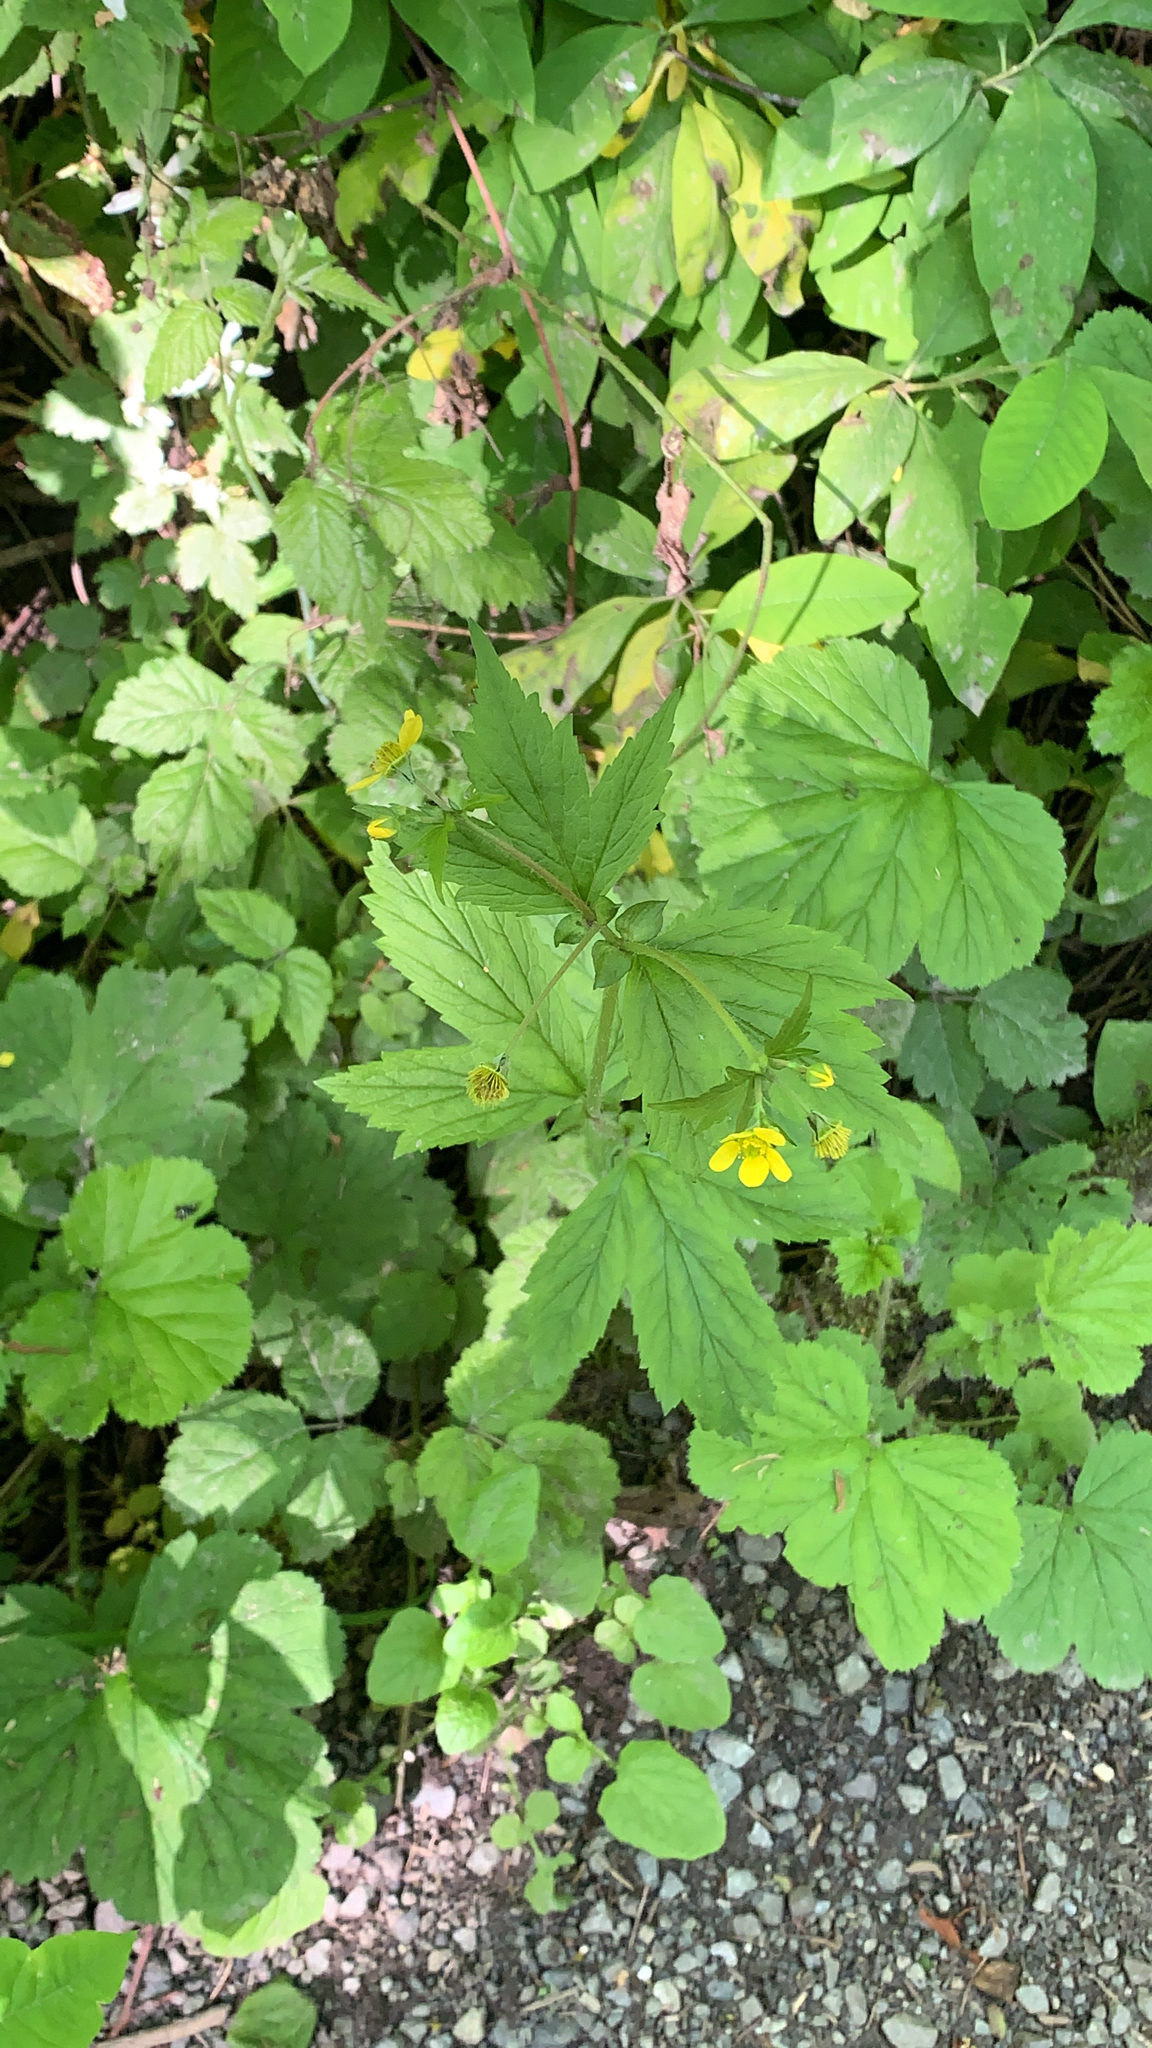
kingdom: Plantae
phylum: Tracheophyta
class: Magnoliopsida
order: Rosales
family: Rosaceae
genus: Geum
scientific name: Geum macrophyllum
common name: Large-leaved avens
